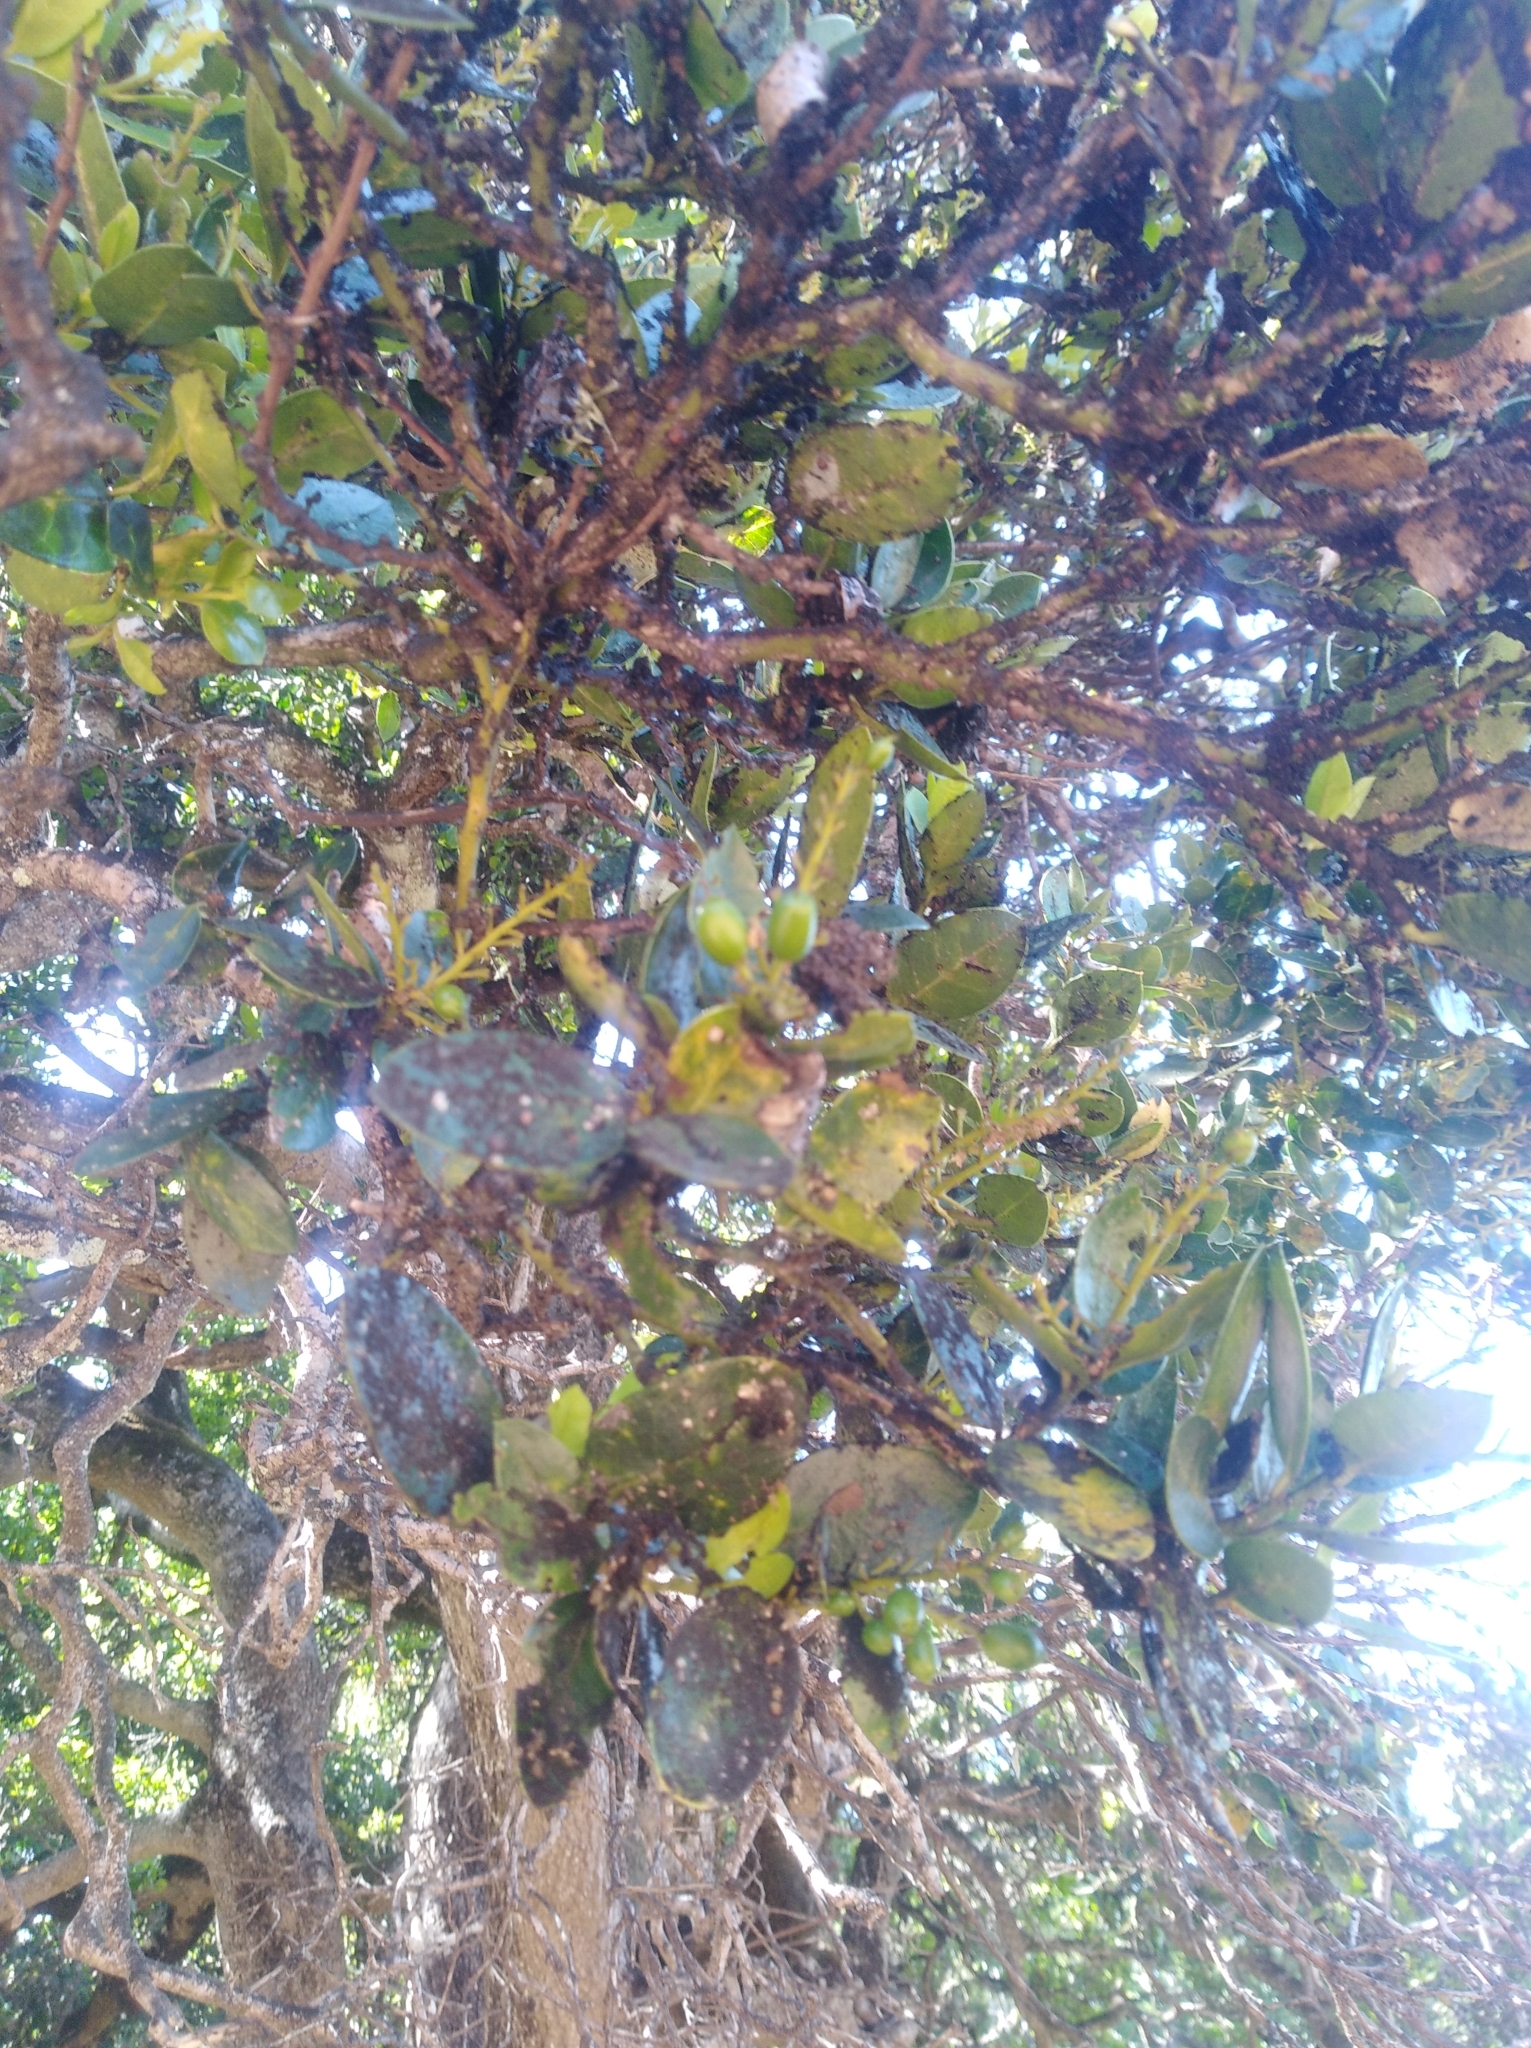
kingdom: Plantae
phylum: Tracheophyta
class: Magnoliopsida
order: Cardiopteridales
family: Cardiopteridaceae
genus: Citronella
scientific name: Citronella mucronata
